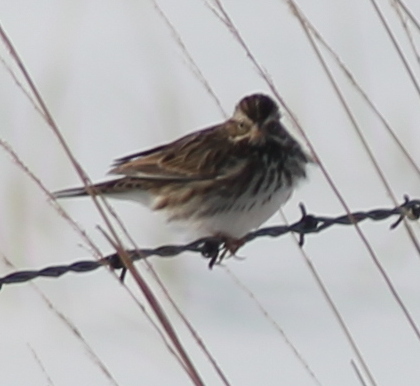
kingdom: Animalia
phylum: Chordata
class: Aves
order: Passeriformes
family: Passerellidae
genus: Passerculus
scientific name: Passerculus sandwichensis
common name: Savannah sparrow
